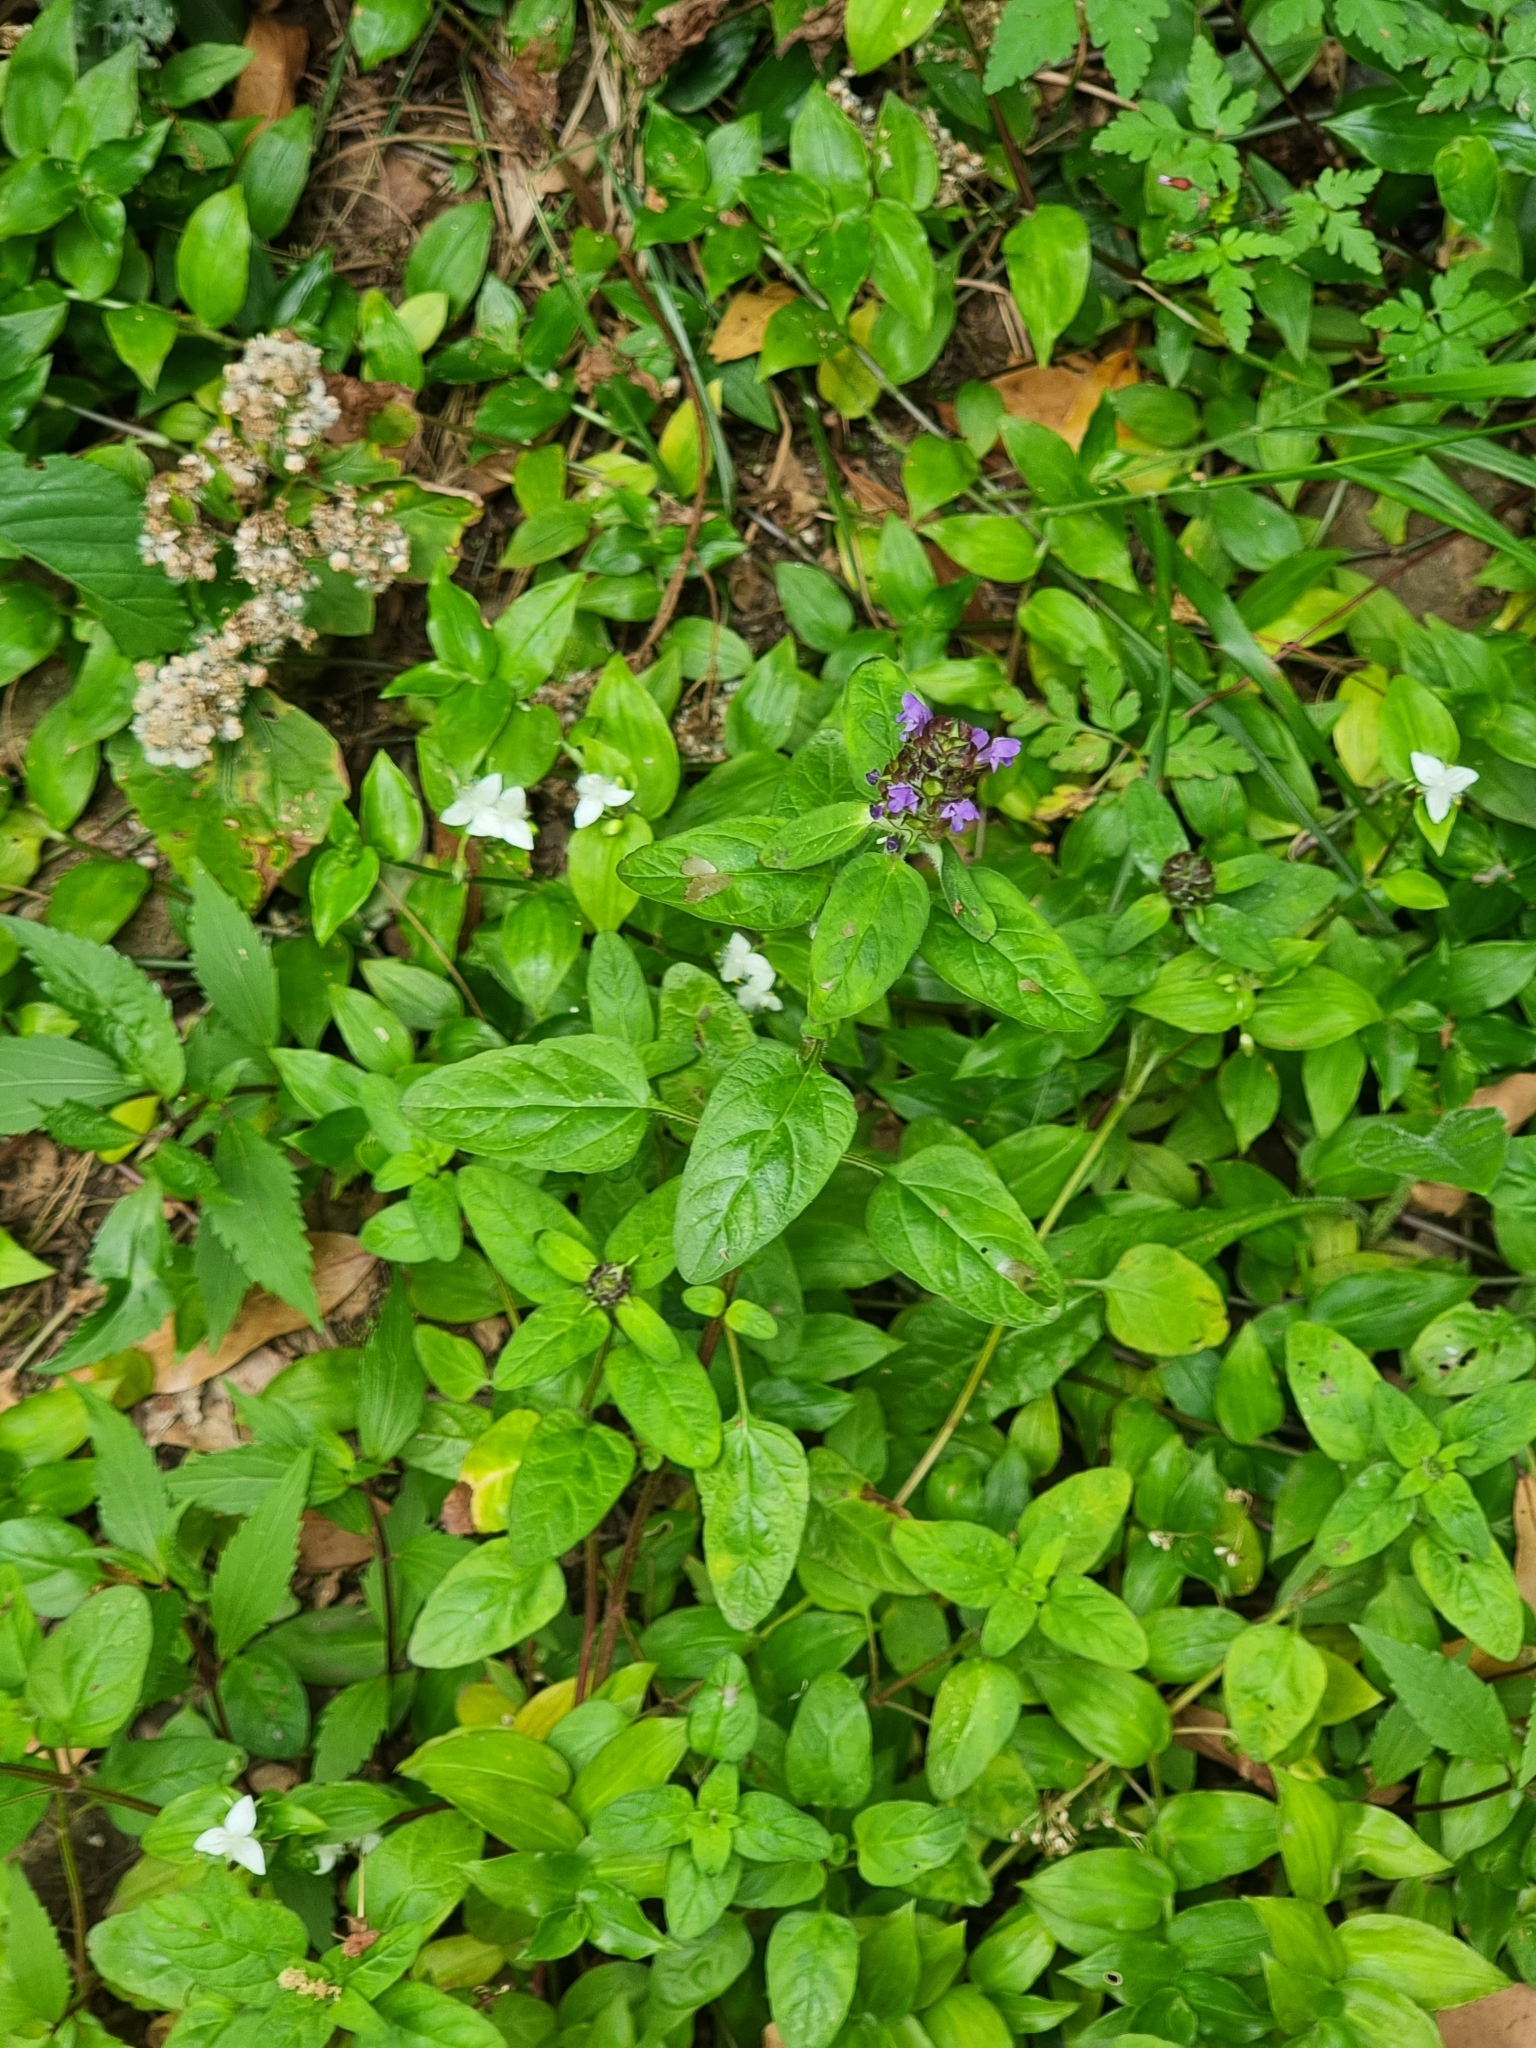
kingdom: Plantae
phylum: Tracheophyta
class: Magnoliopsida
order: Lamiales
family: Lamiaceae
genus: Prunella
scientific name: Prunella vulgaris
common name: Heal-all
